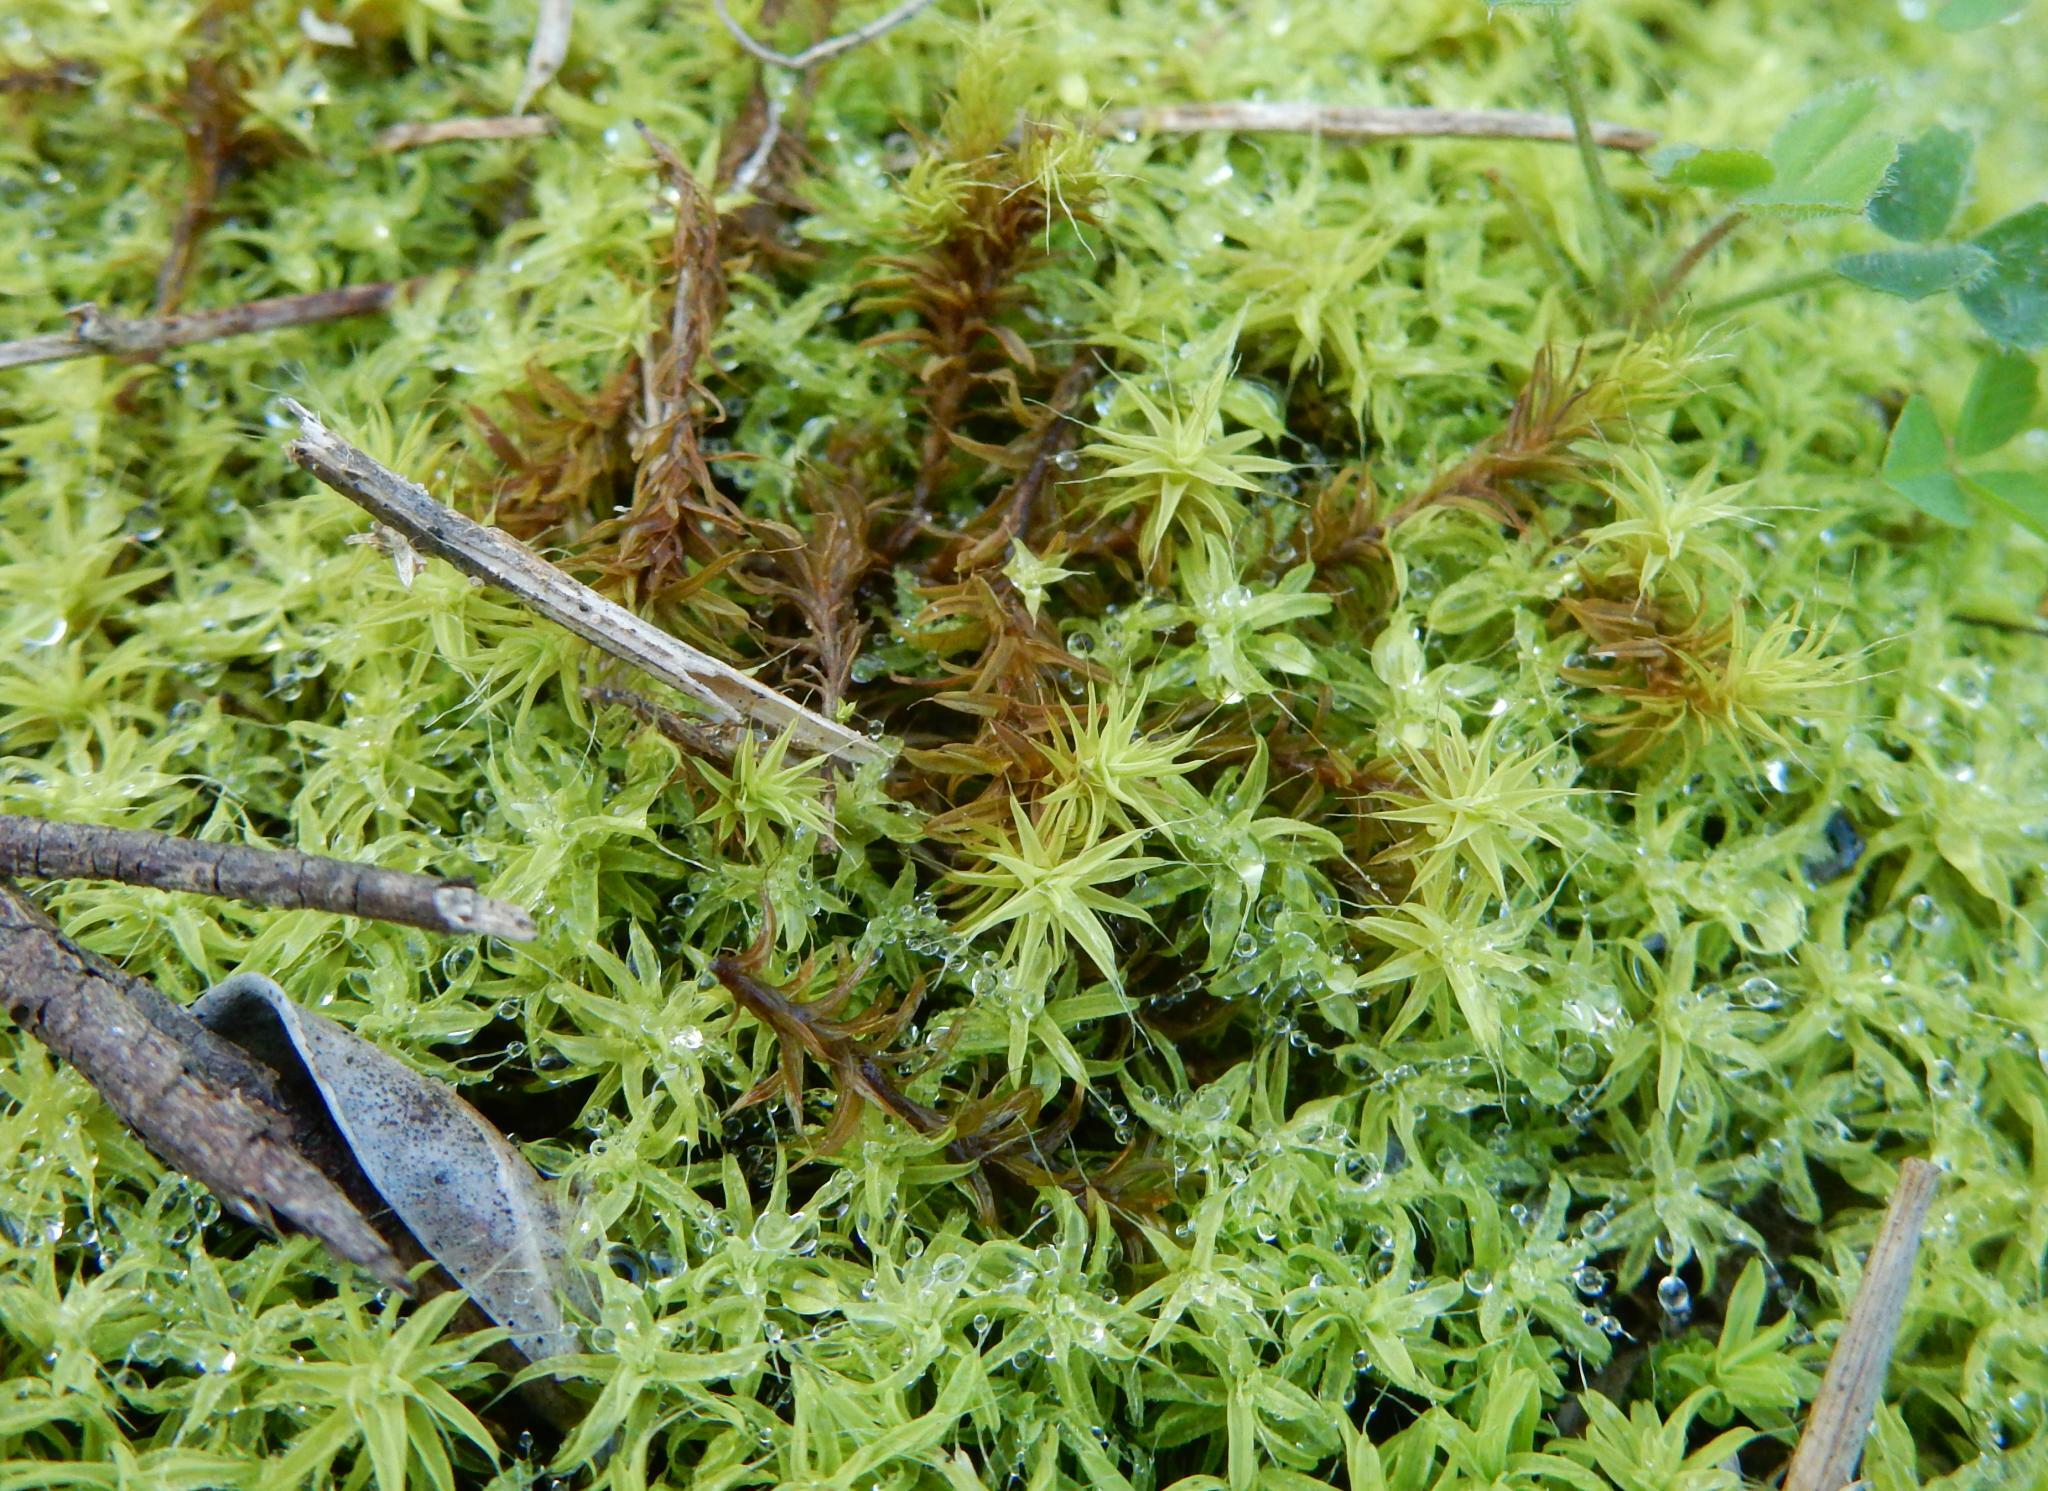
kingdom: Plantae
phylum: Bryophyta
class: Bryopsida
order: Pottiales
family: Pottiaceae
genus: Pseudocrossidium
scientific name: Pseudocrossidium crinitum
